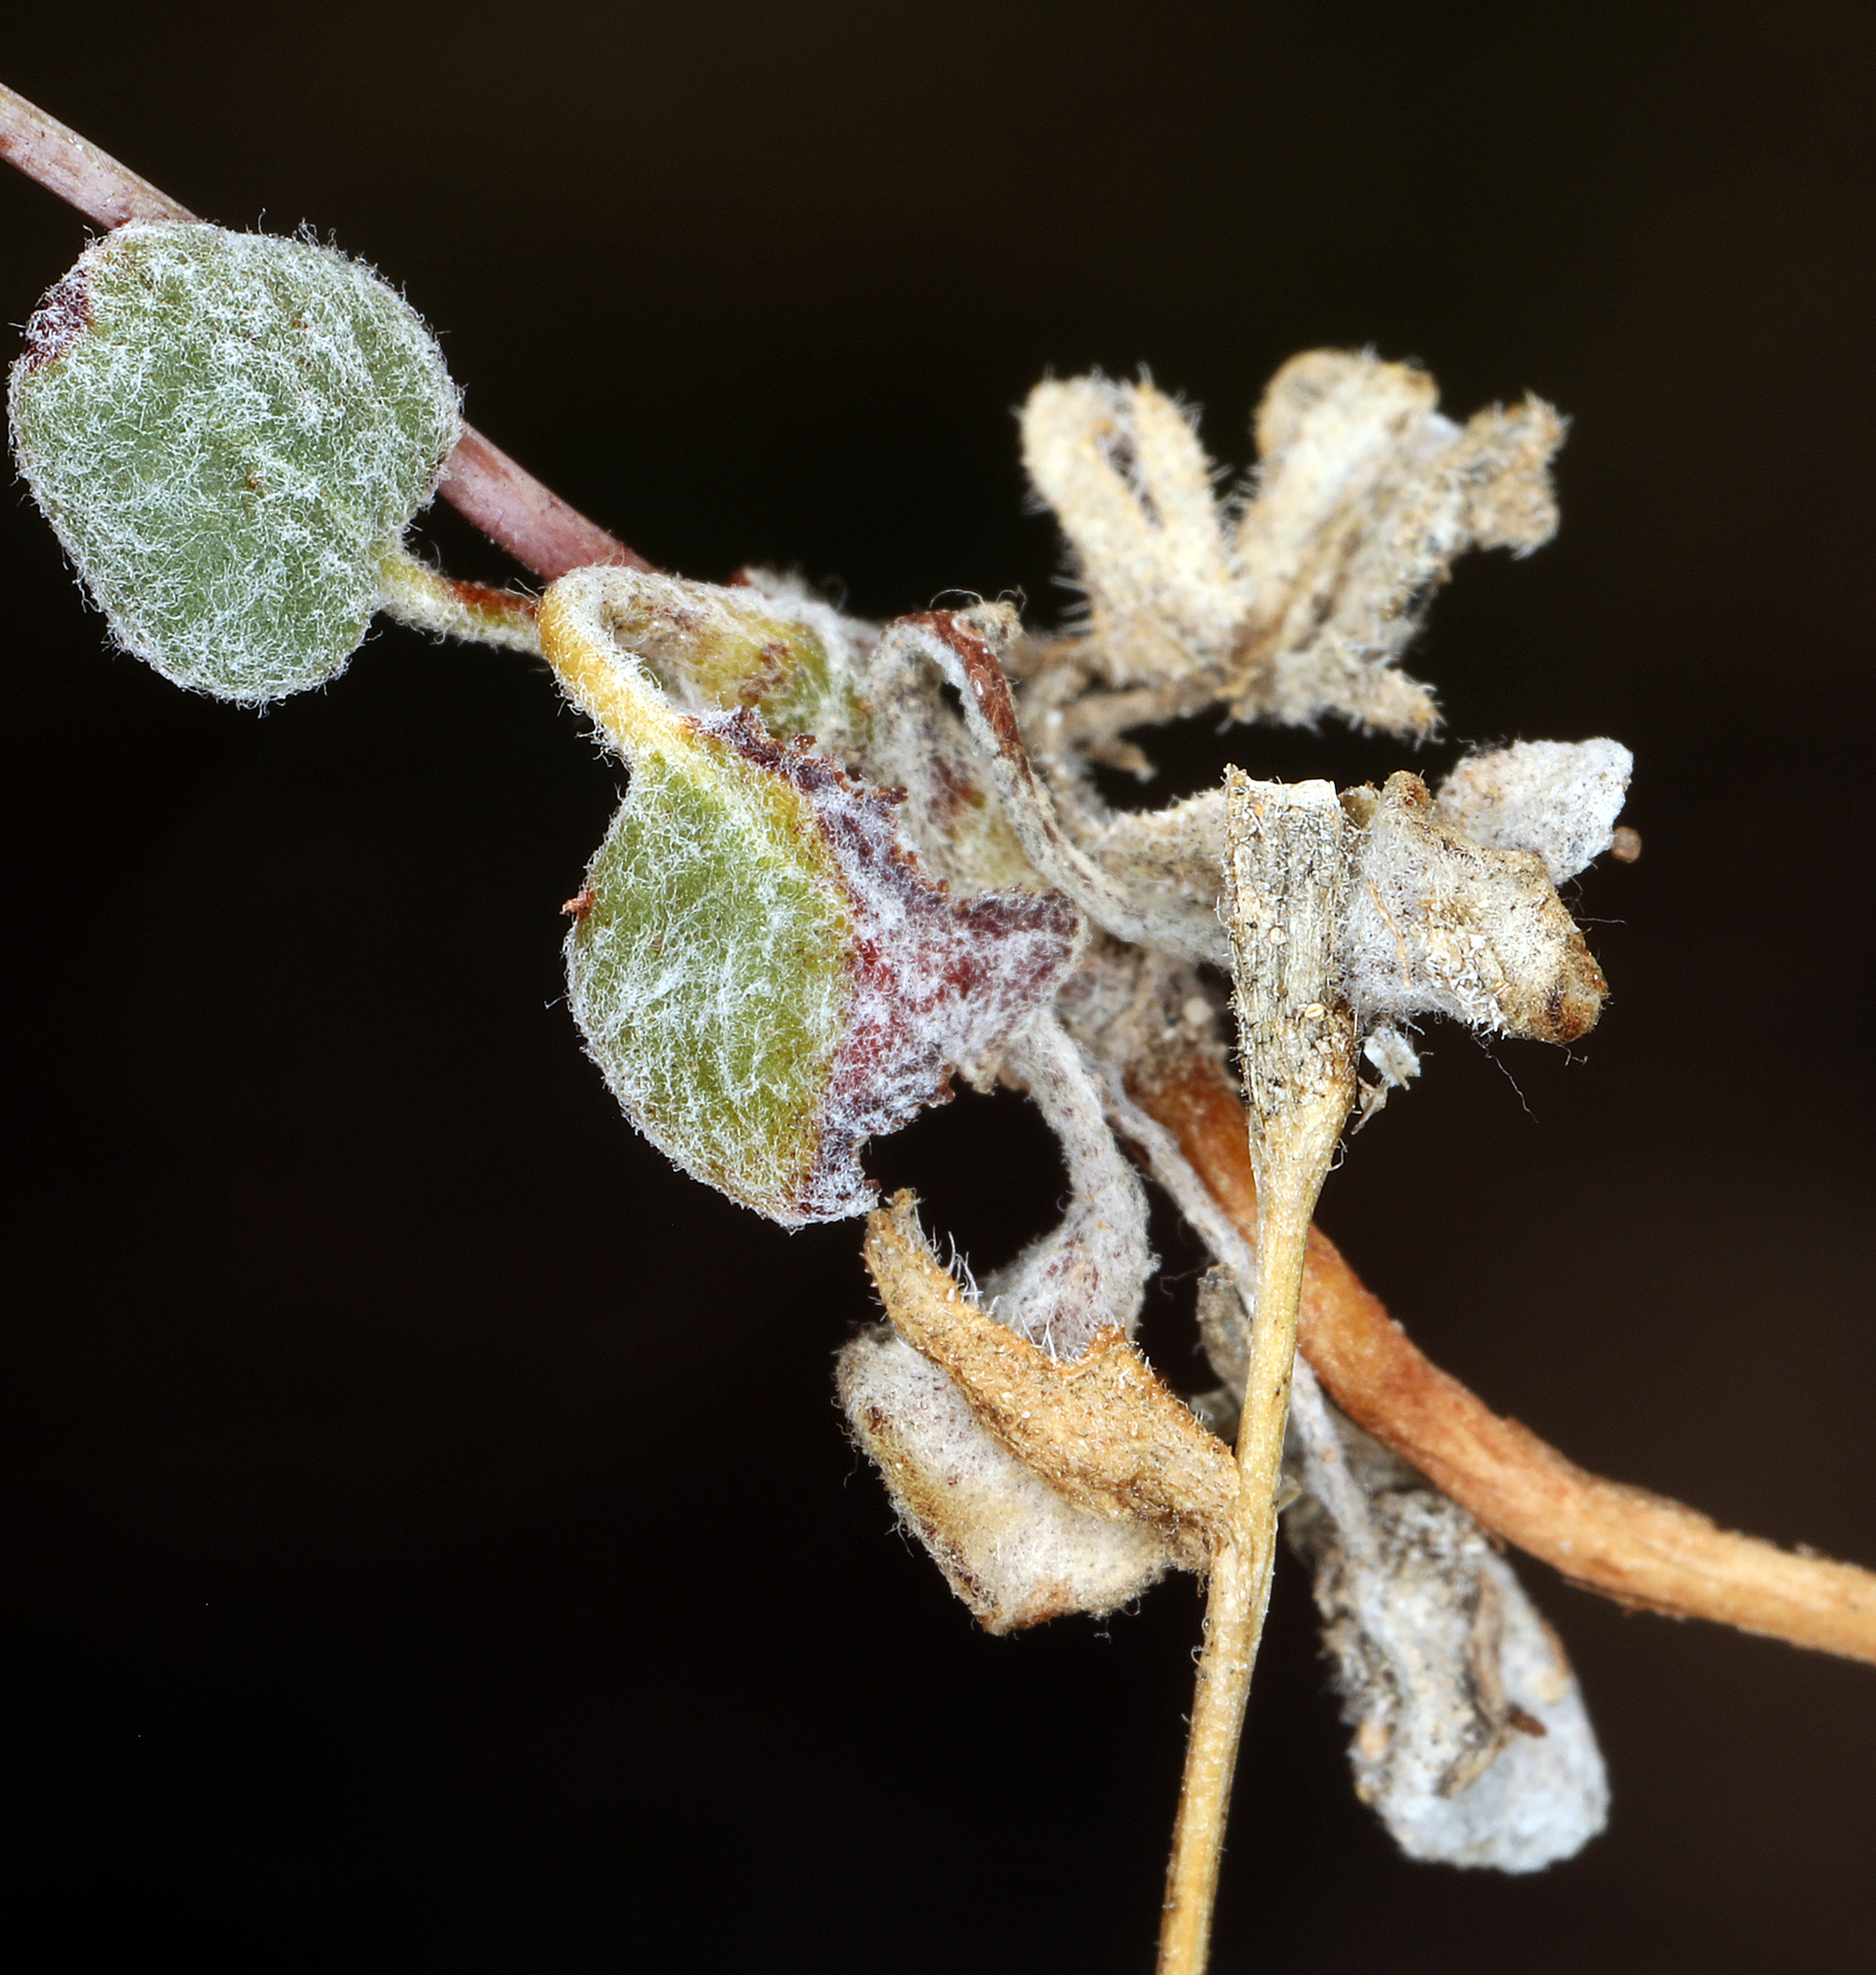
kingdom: Plantae
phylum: Tracheophyta
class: Magnoliopsida
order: Caryophyllales
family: Polygonaceae
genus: Eriogonum
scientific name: Eriogonum deflexum
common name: Skeleton-weed
